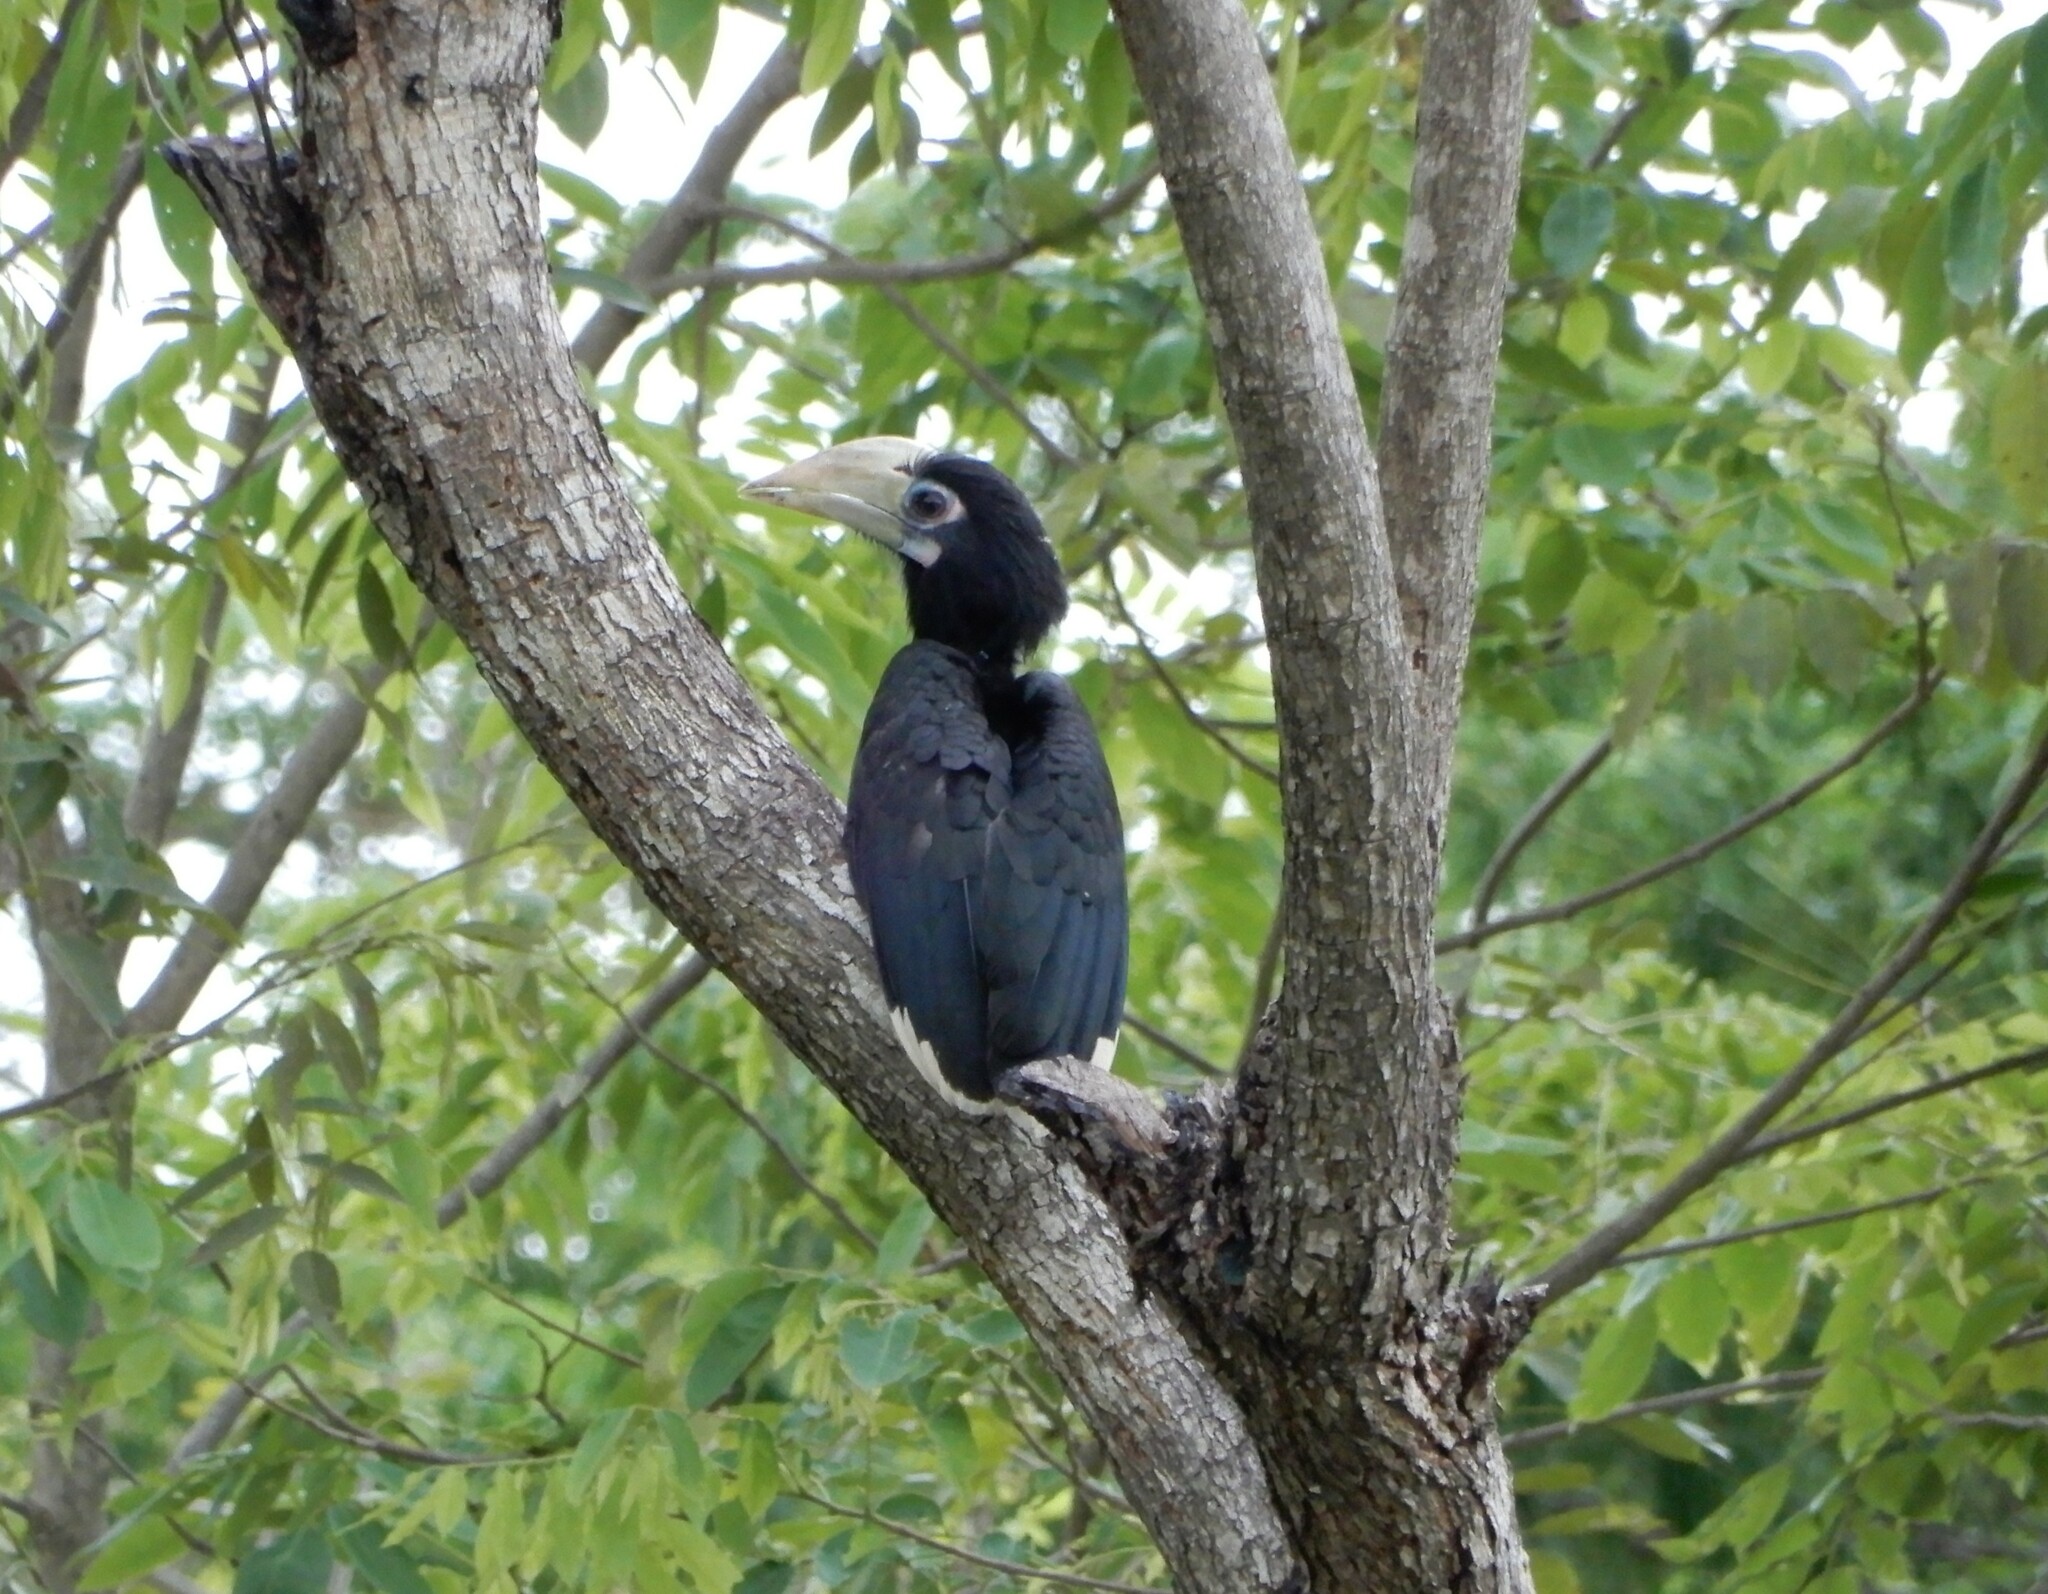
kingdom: Animalia
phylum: Chordata
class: Aves
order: Bucerotiformes
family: Bucerotidae
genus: Anthracoceros
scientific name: Anthracoceros albirostris
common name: Oriental pied-hornbill
